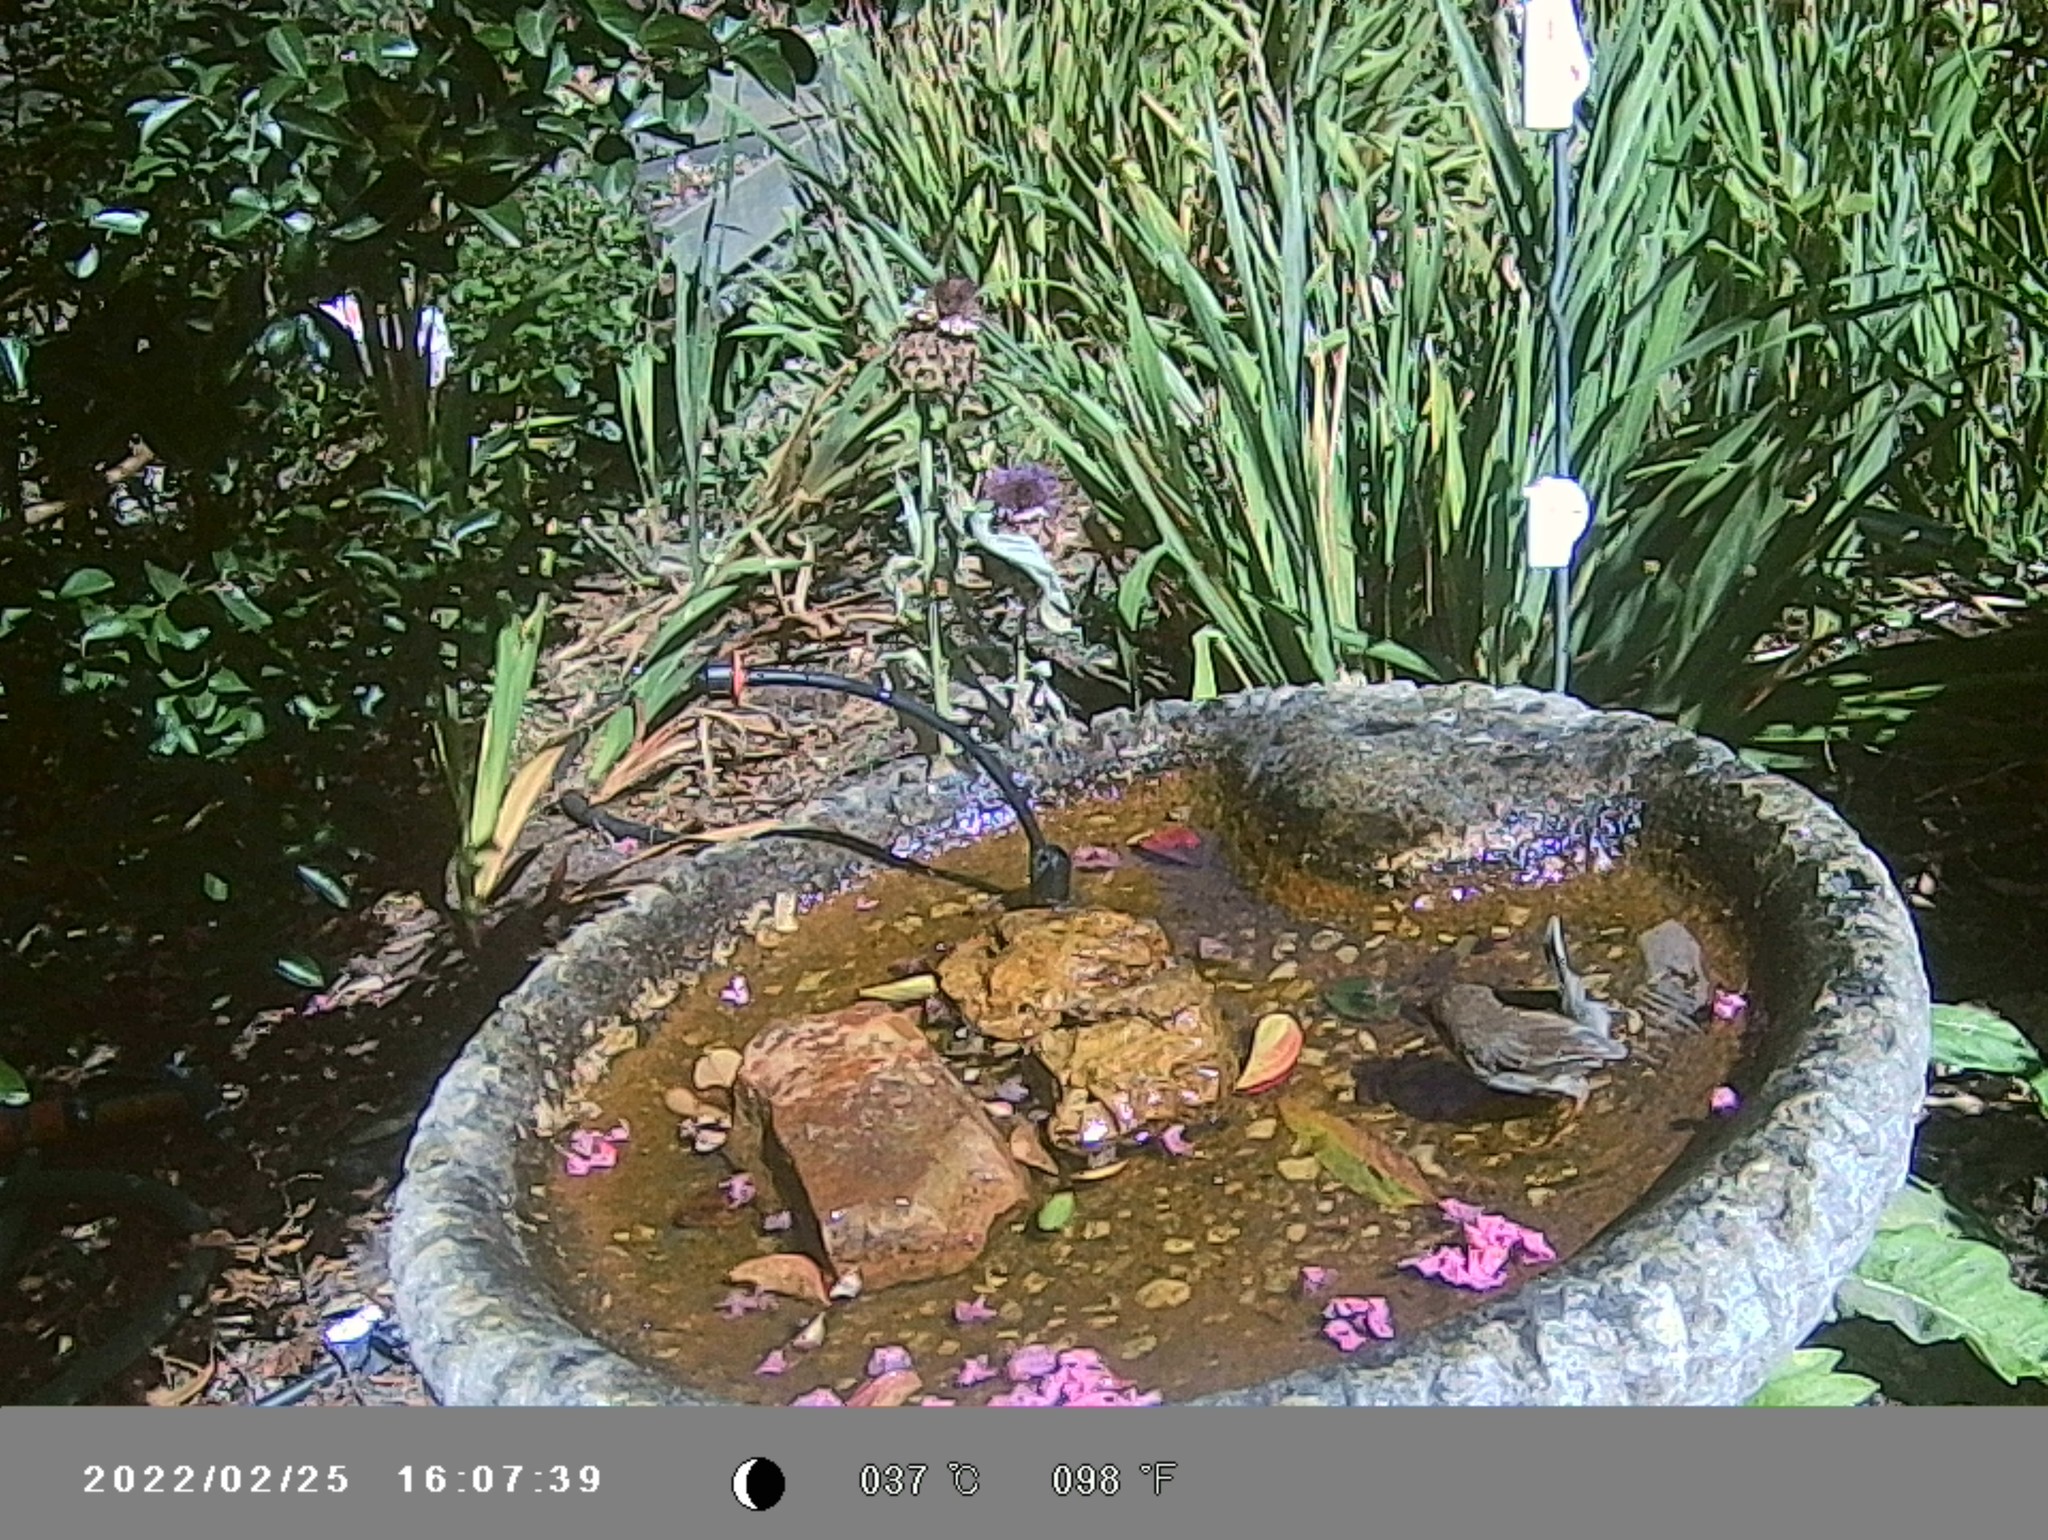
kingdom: Animalia
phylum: Chordata
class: Aves
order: Passeriformes
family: Maluridae
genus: Malurus
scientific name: Malurus cyaneus
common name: Superb fairywren
